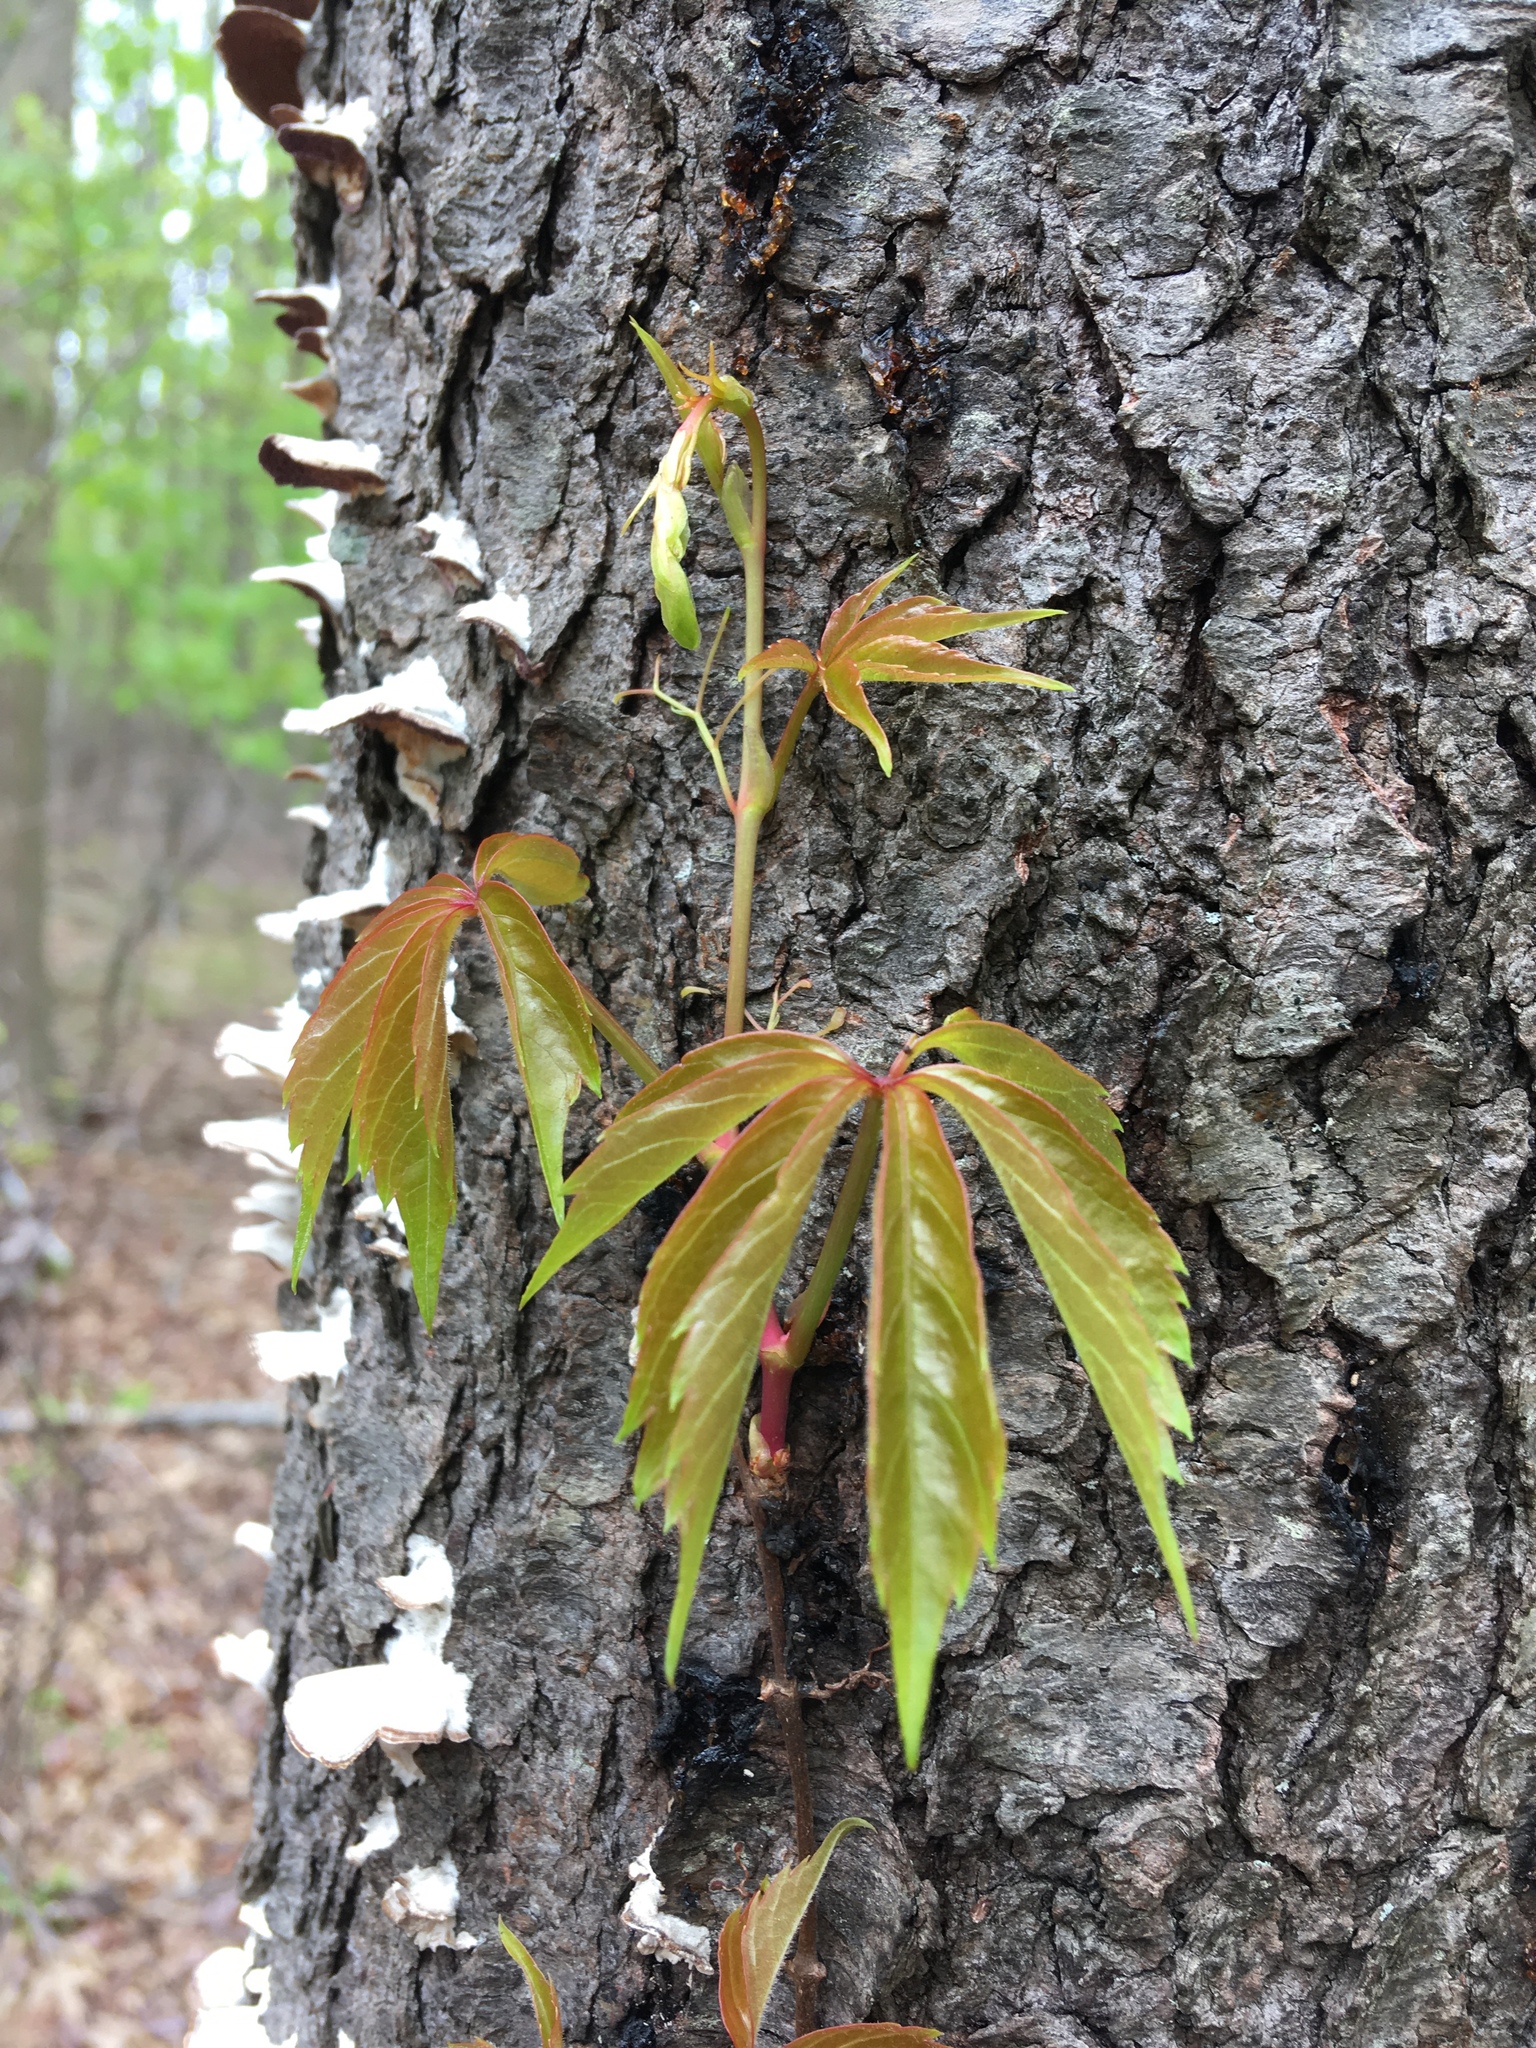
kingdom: Plantae
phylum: Tracheophyta
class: Magnoliopsida
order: Vitales
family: Vitaceae
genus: Parthenocissus
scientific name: Parthenocissus quinquefolia
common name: Virginia-creeper
